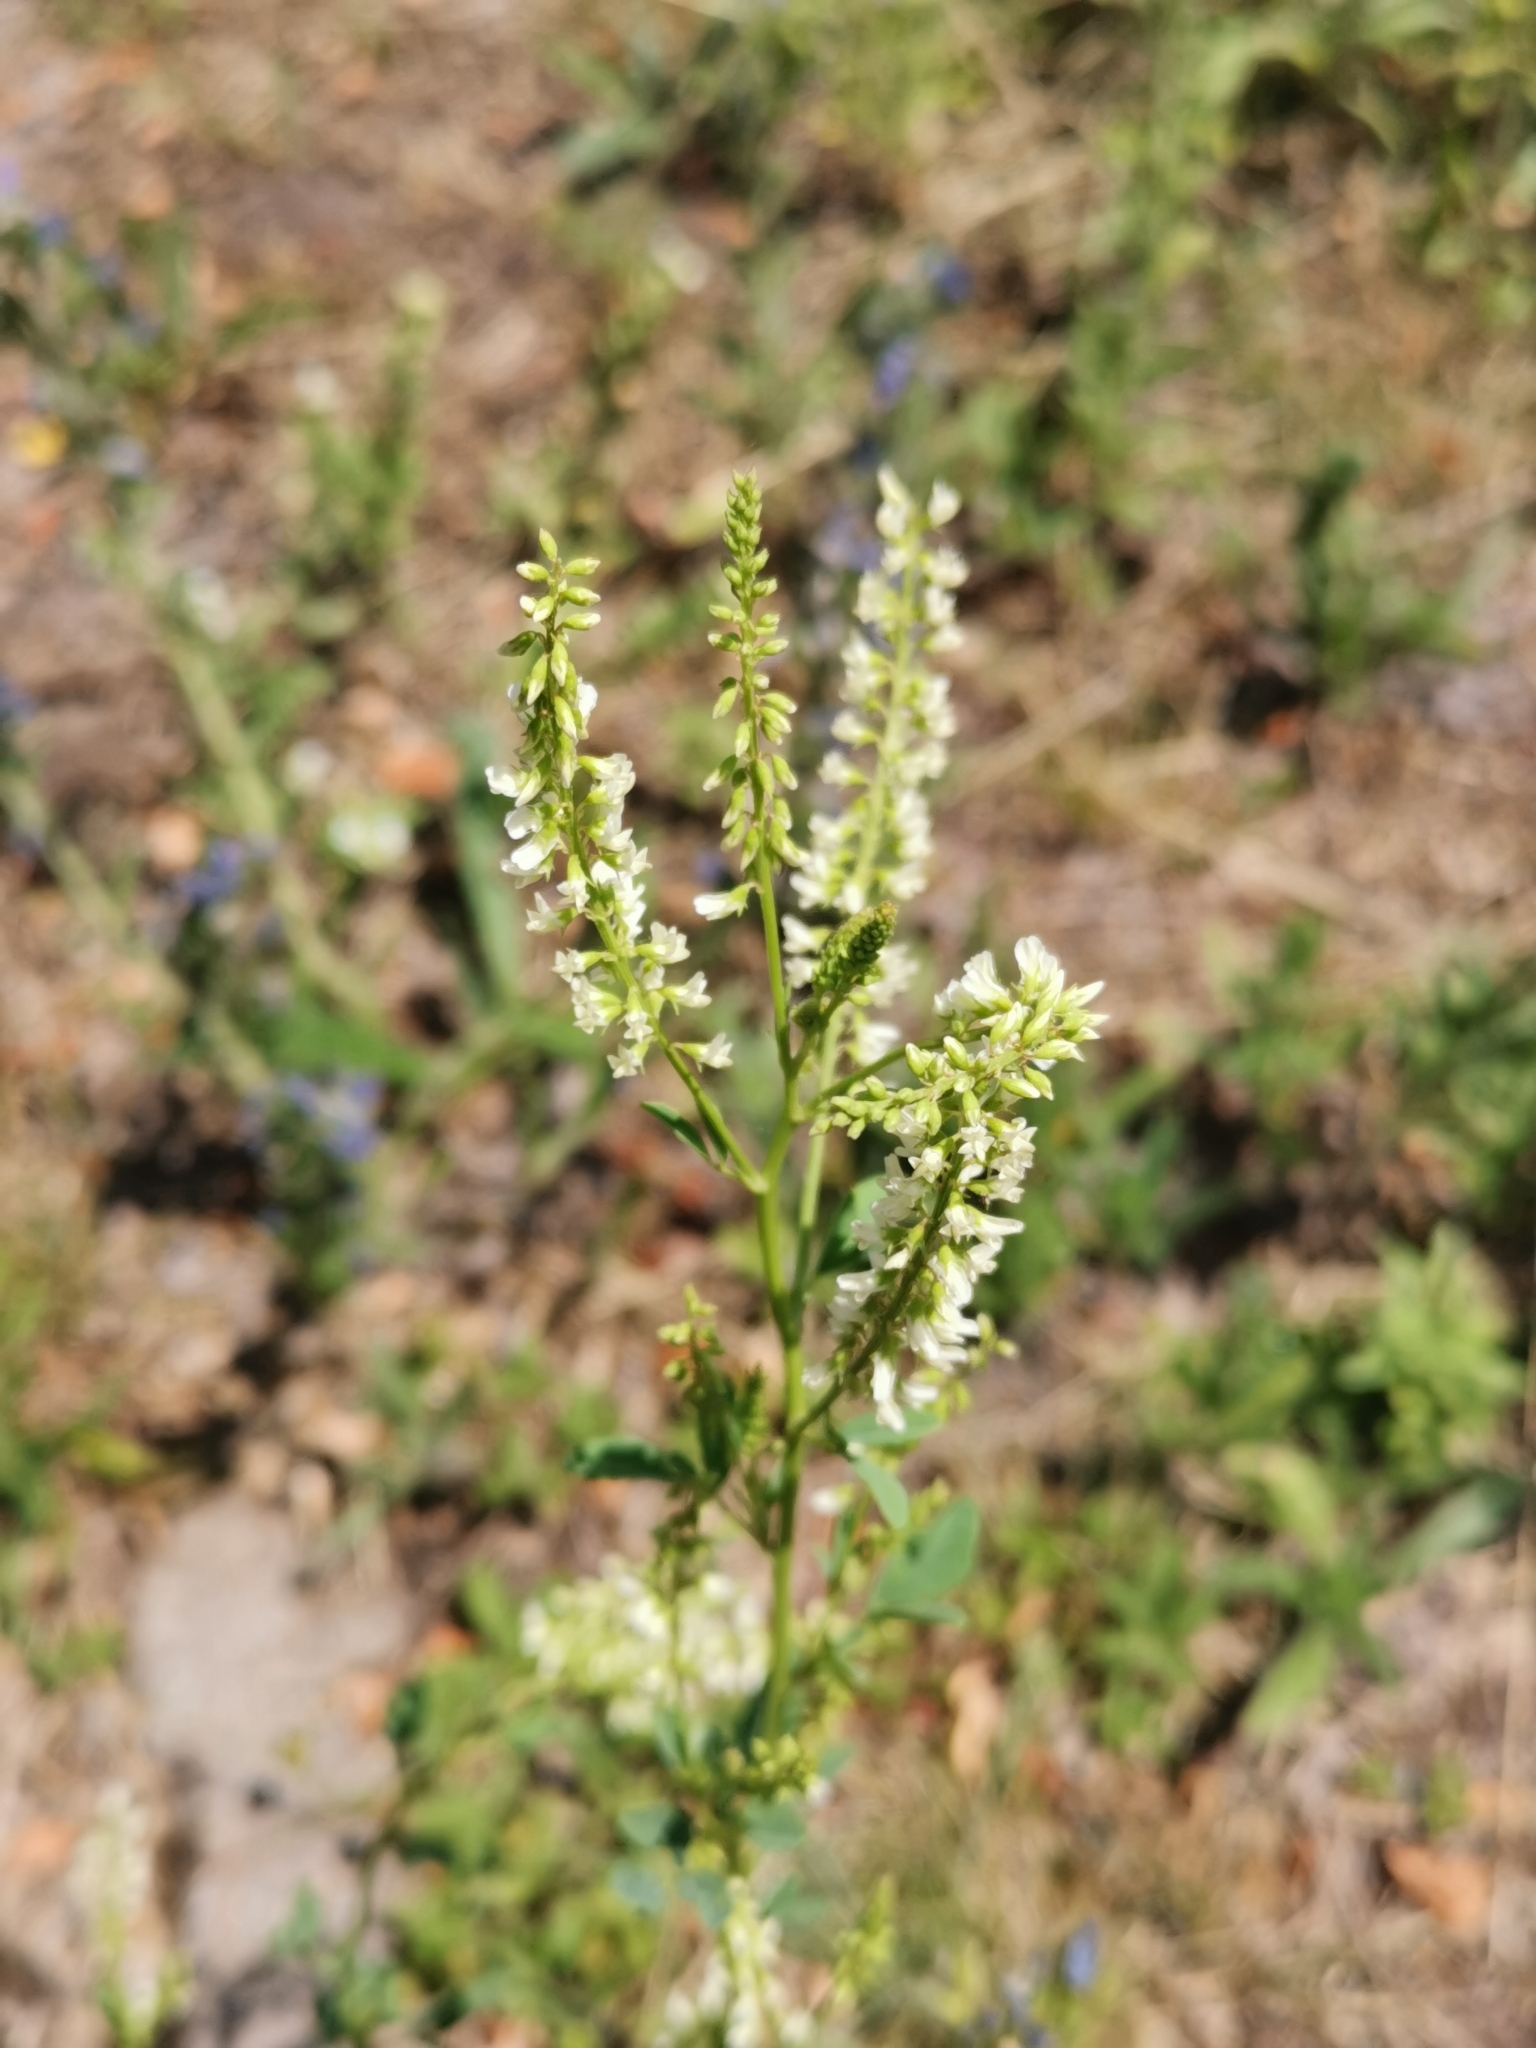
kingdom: Plantae
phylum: Tracheophyta
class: Magnoliopsida
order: Fabales
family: Fabaceae
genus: Melilotus
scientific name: Melilotus albus
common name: White melilot
